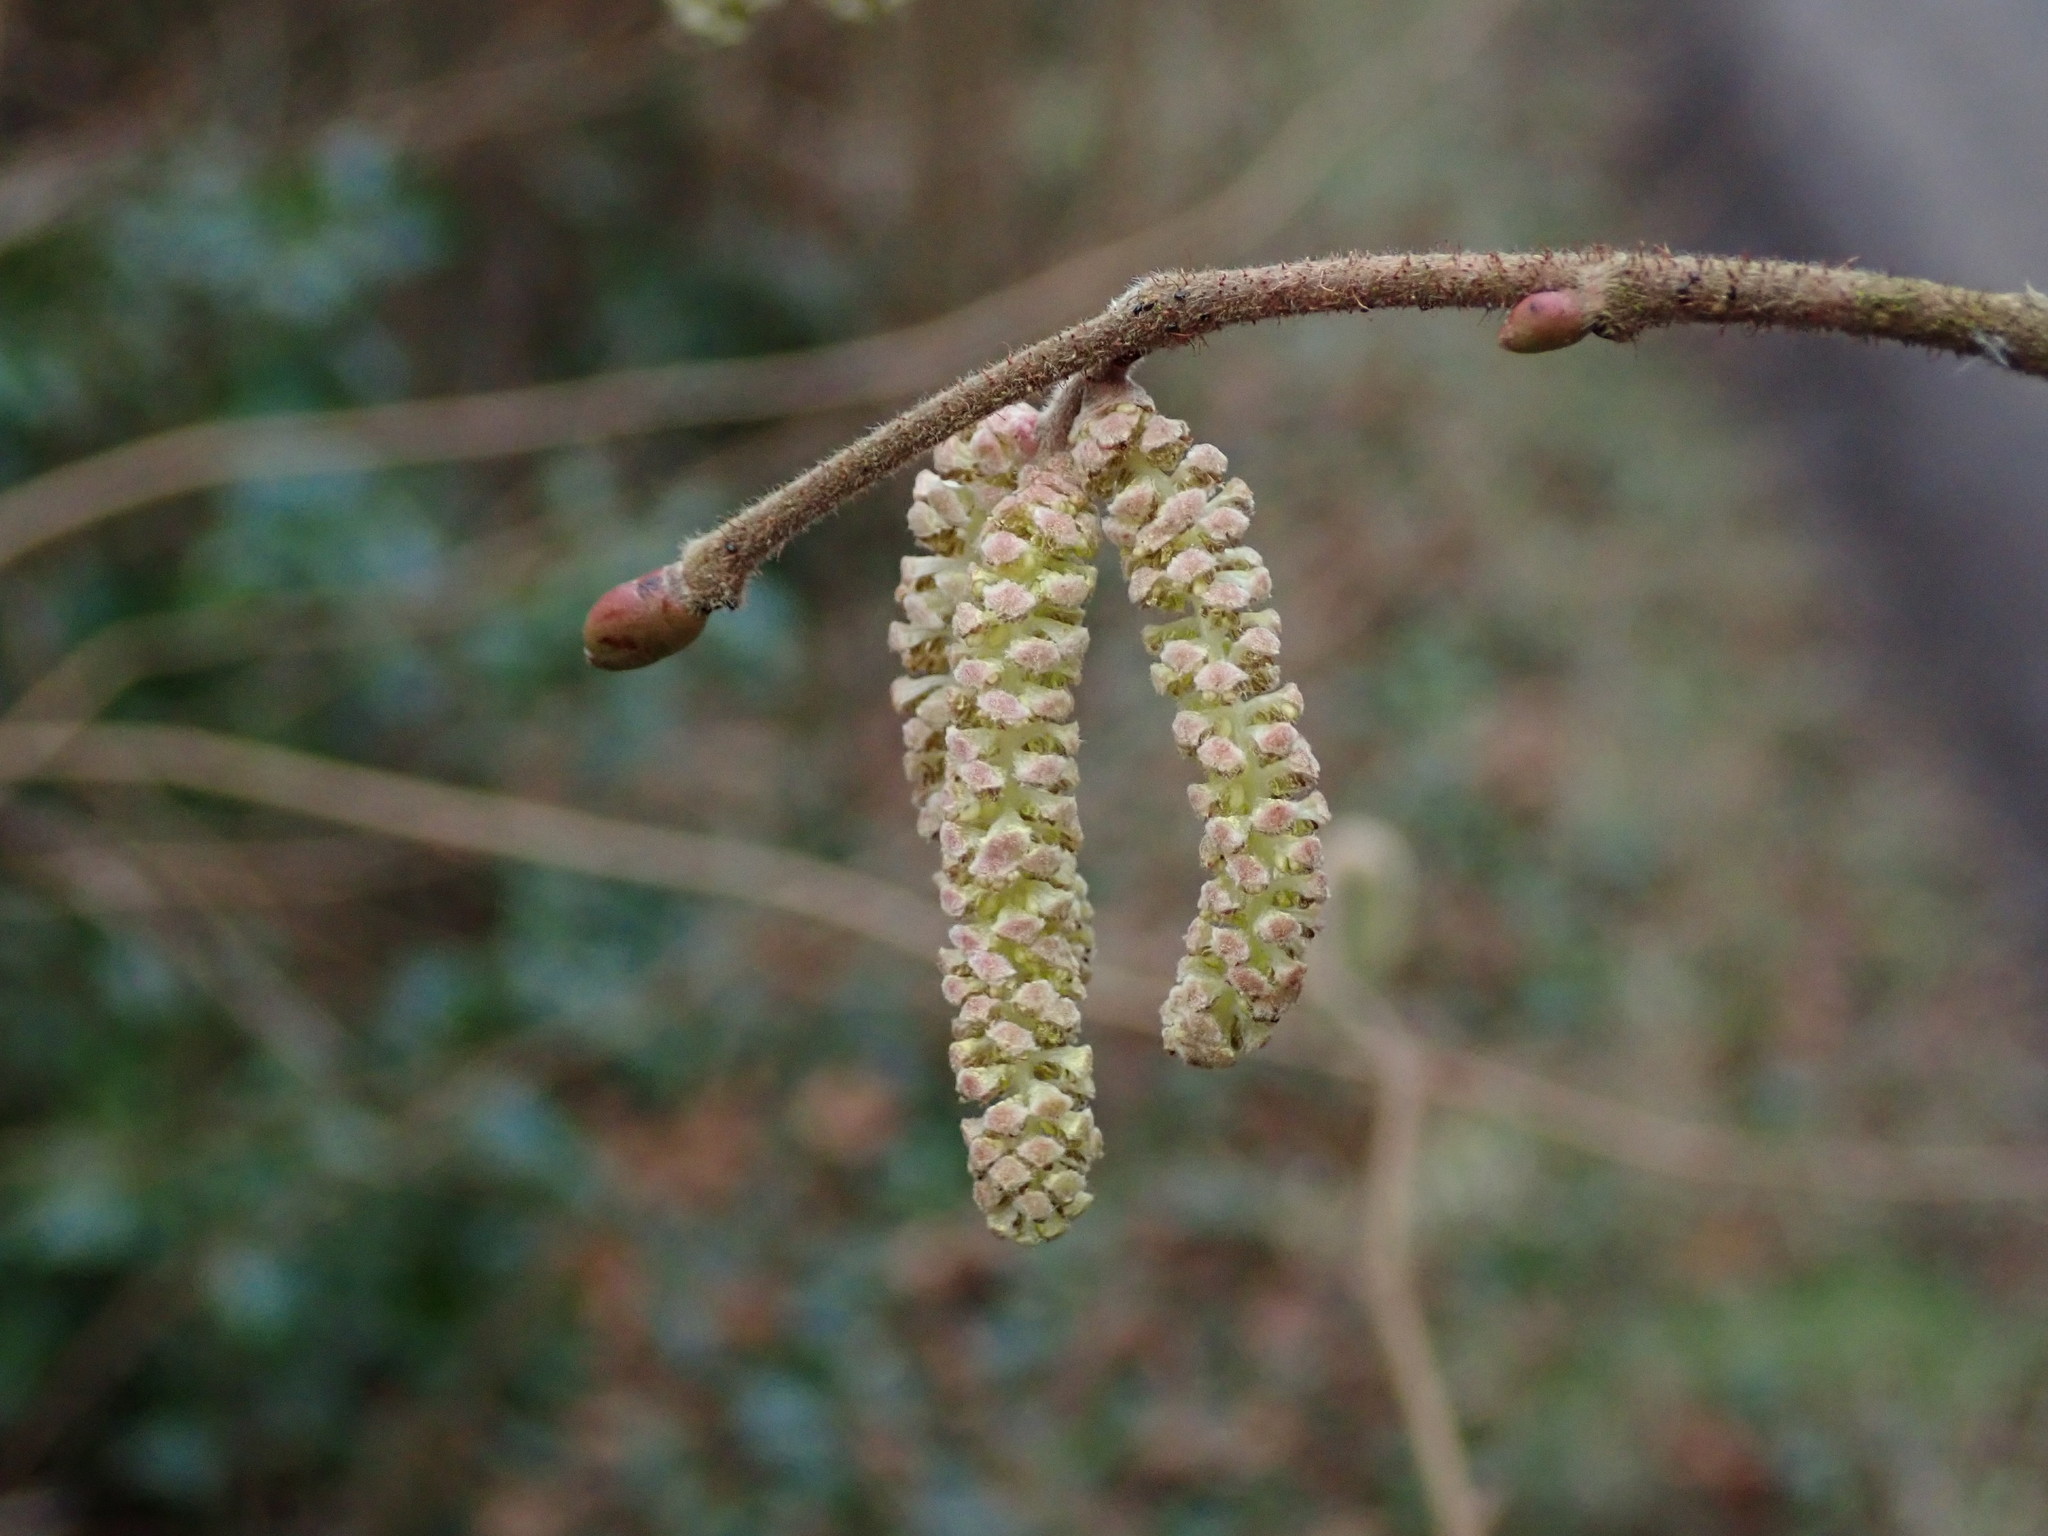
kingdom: Plantae
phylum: Tracheophyta
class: Magnoliopsida
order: Fagales
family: Betulaceae
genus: Corylus
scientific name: Corylus avellana
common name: European hazel
